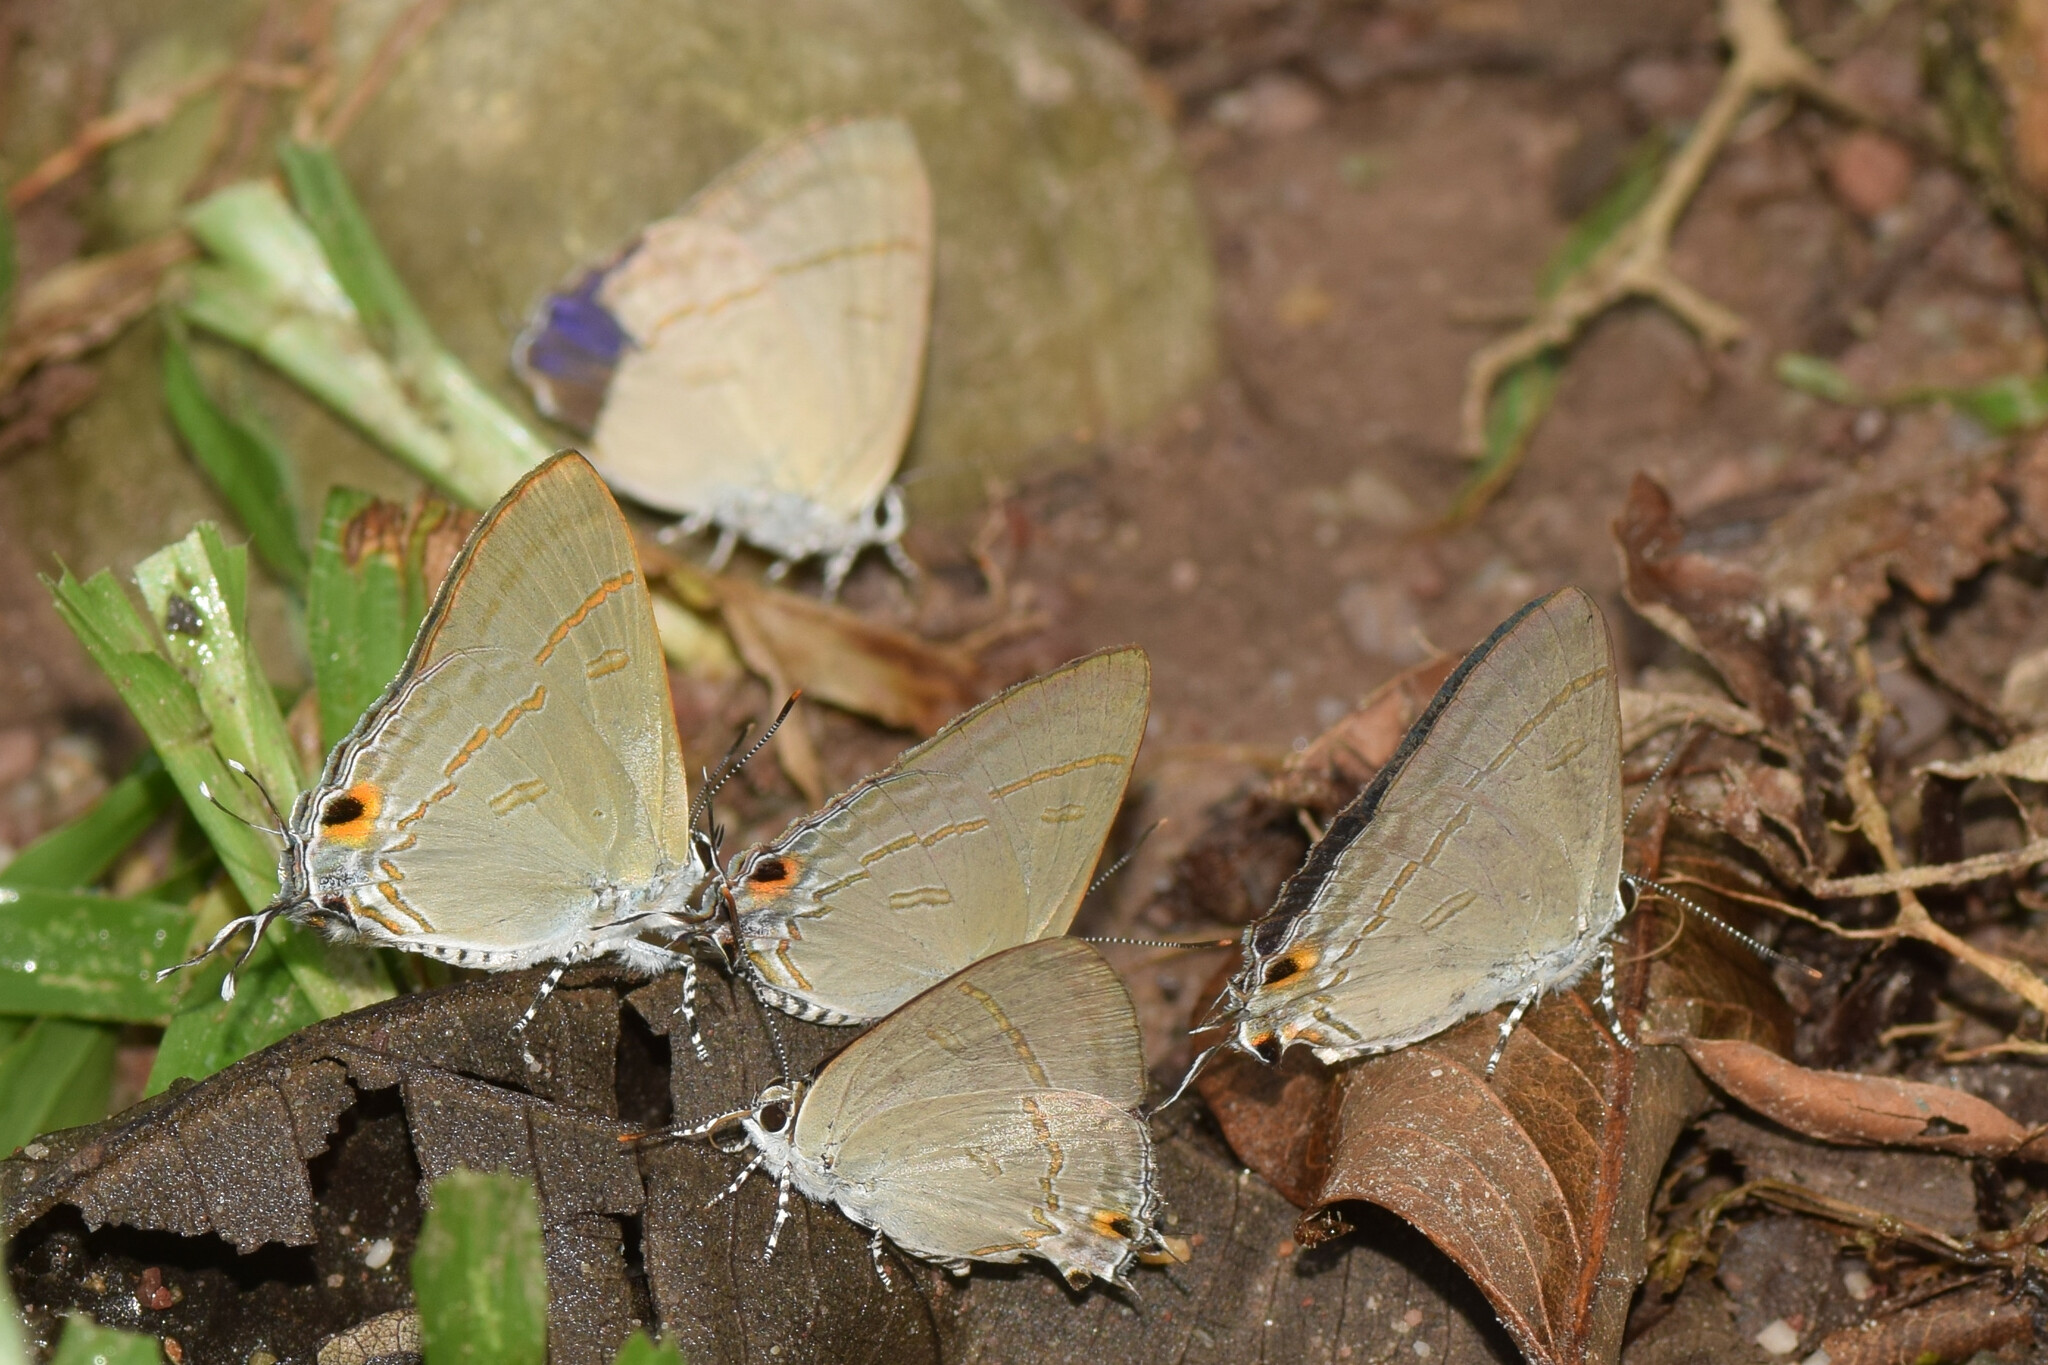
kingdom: Animalia
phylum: Arthropoda
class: Insecta
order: Lepidoptera
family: Lycaenidae
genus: Hypolycaena
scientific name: Hypolycaena erylus
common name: Common tit
